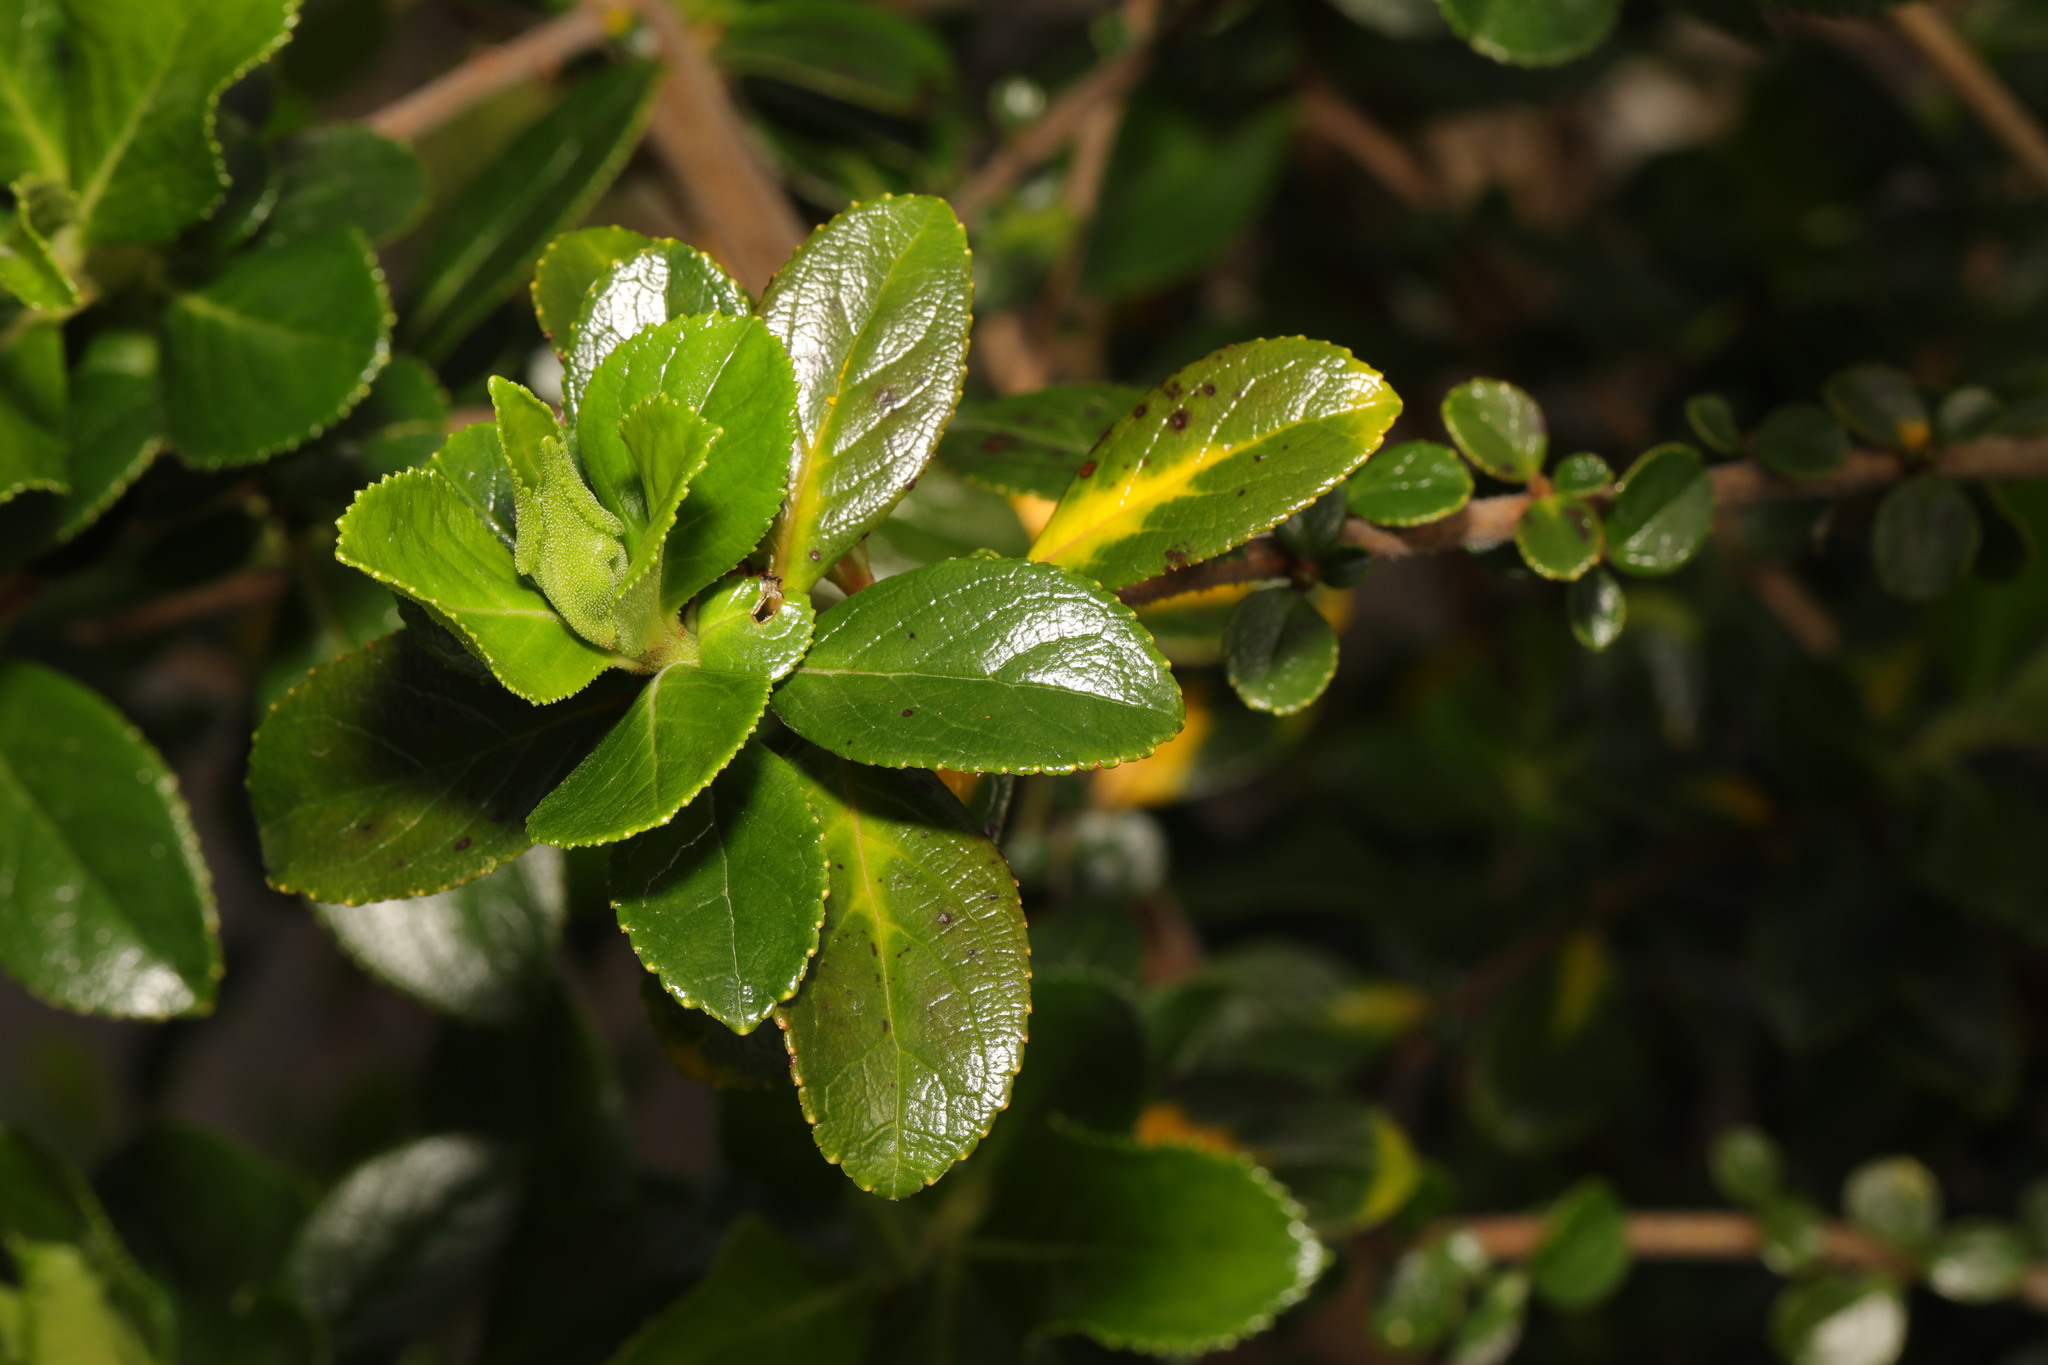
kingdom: Plantae
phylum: Tracheophyta
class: Magnoliopsida
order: Escalloniales
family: Escalloniaceae
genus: Escallonia
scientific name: Escallonia rubra
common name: Redclaws
